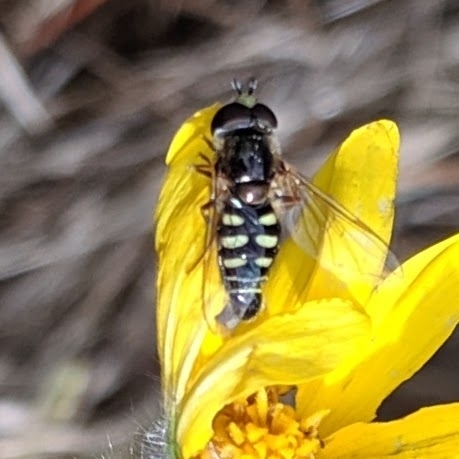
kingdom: Animalia
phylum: Arthropoda
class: Insecta
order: Diptera
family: Syrphidae
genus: Eupeodes
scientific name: Eupeodes volucris
